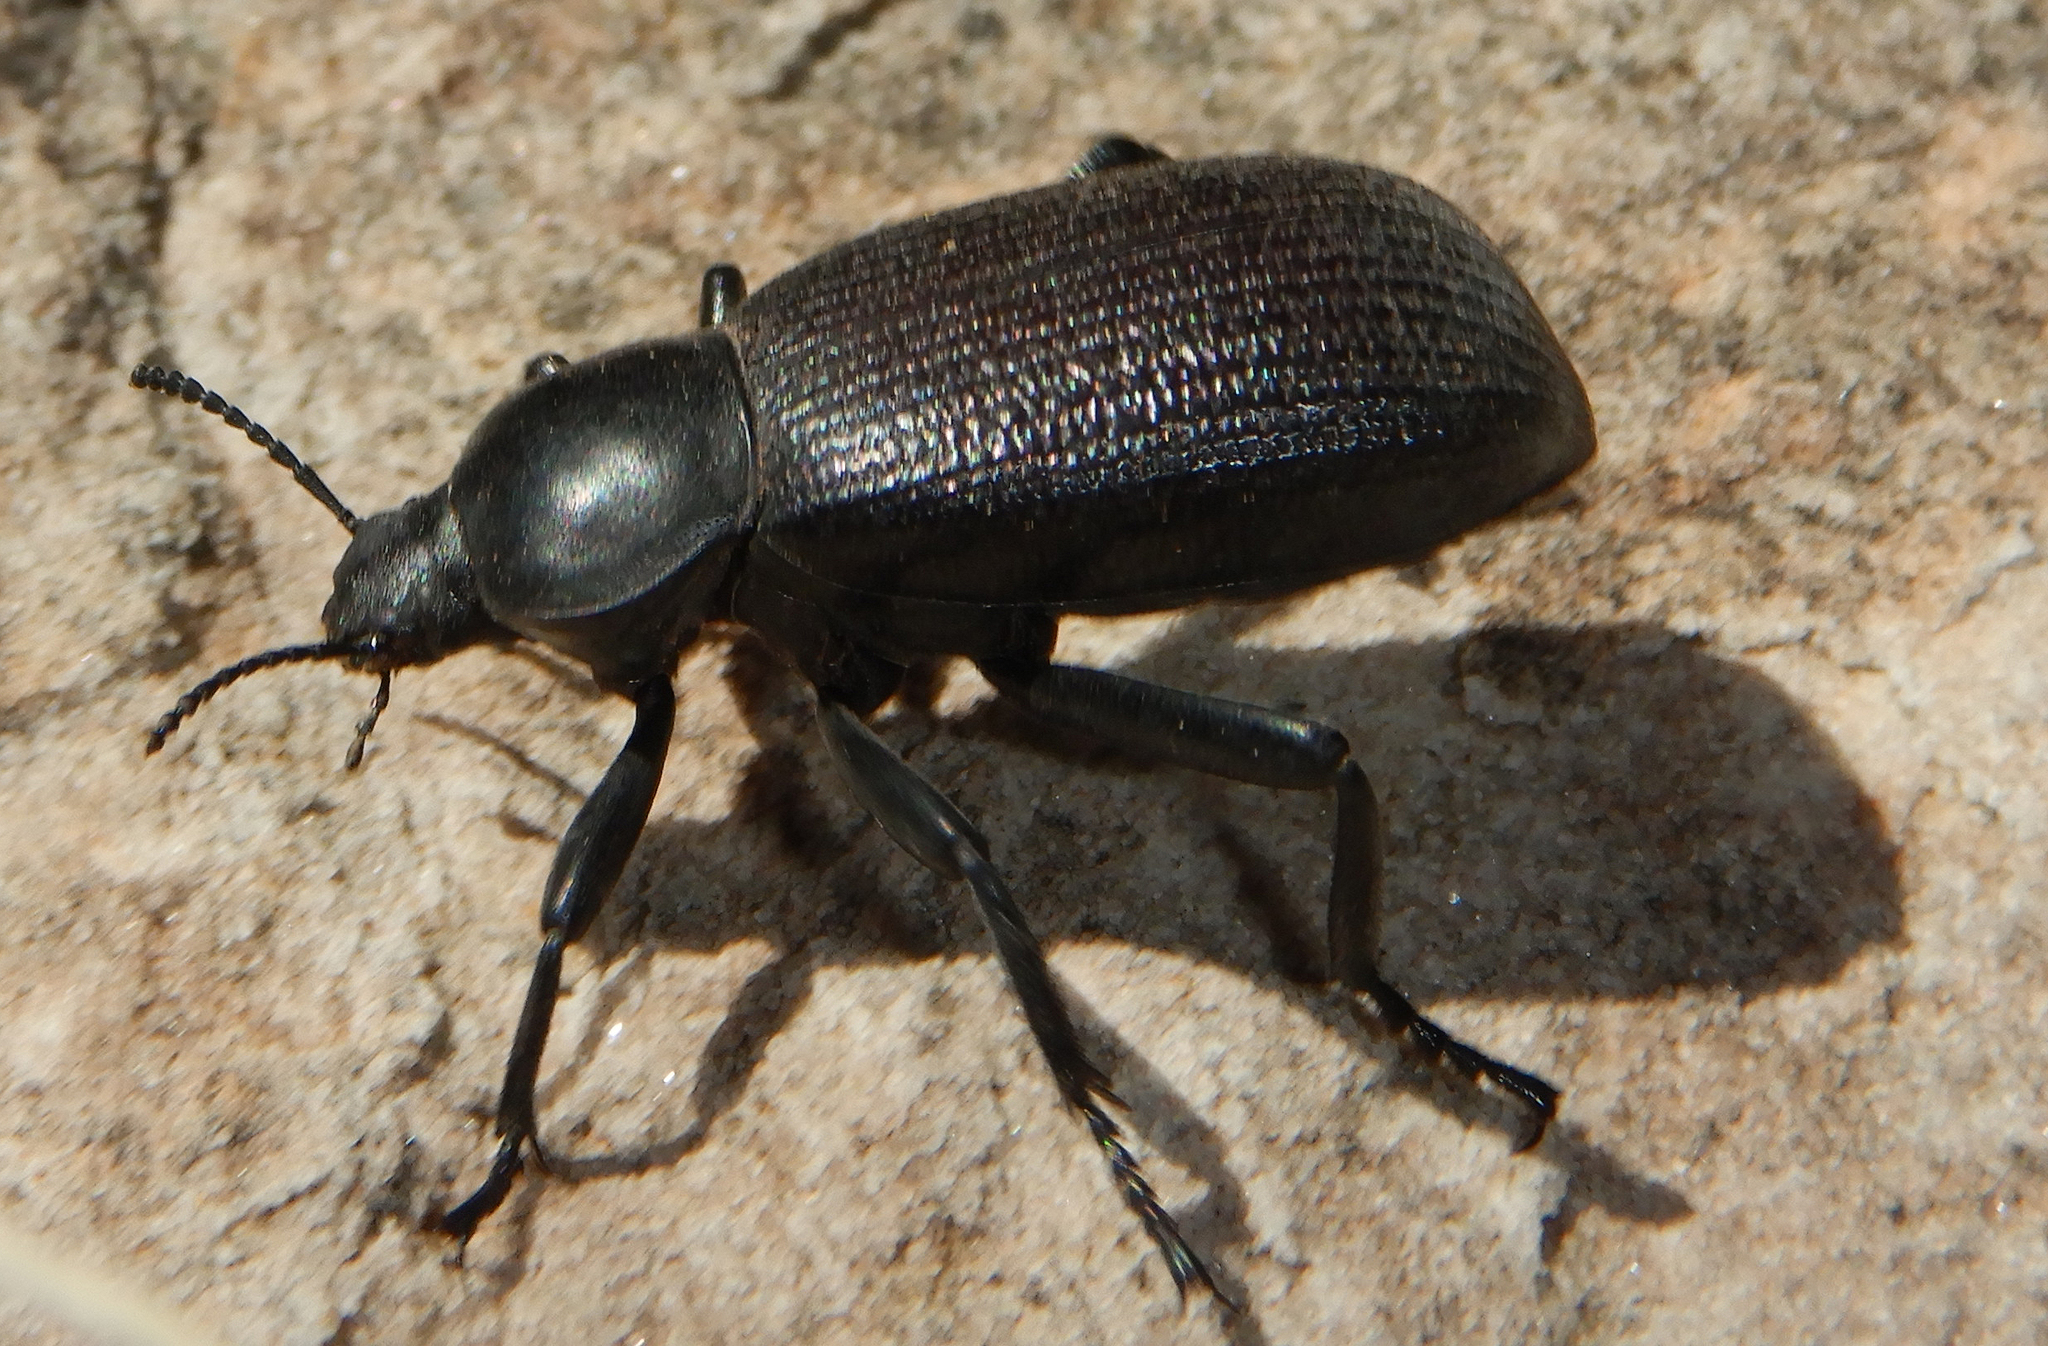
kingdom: Animalia
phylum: Arthropoda
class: Insecta
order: Coleoptera
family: Tenebrionidae
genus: Eleodes
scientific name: Eleodes obscura
